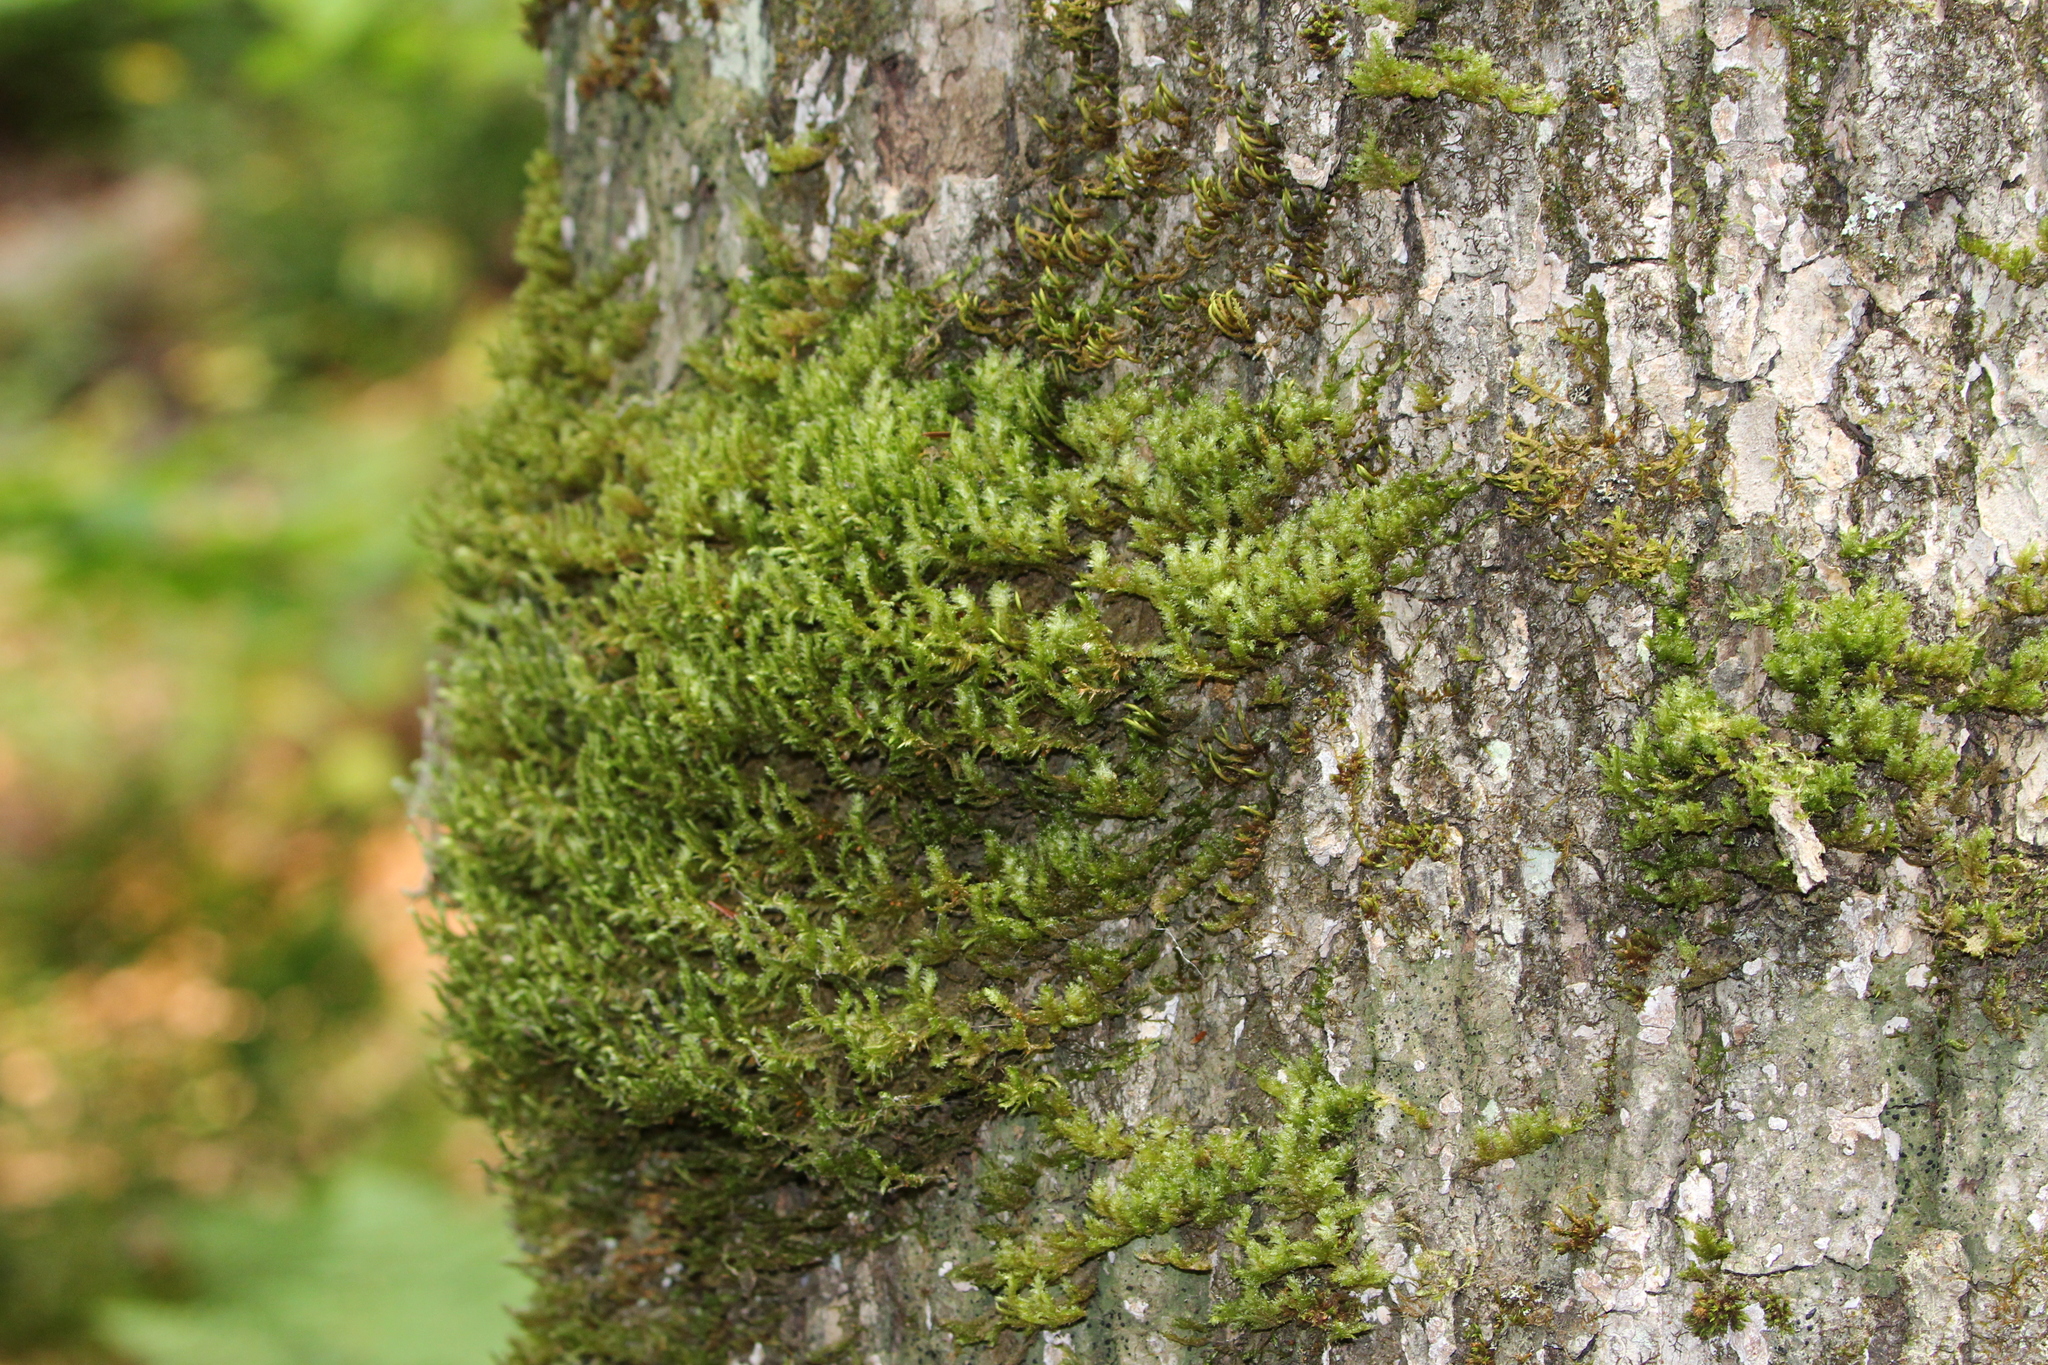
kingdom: Plantae
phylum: Bryophyta
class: Bryopsida
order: Hypnales
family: Neckeraceae
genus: Neckera
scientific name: Neckera pennata
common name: Feathery neckera
